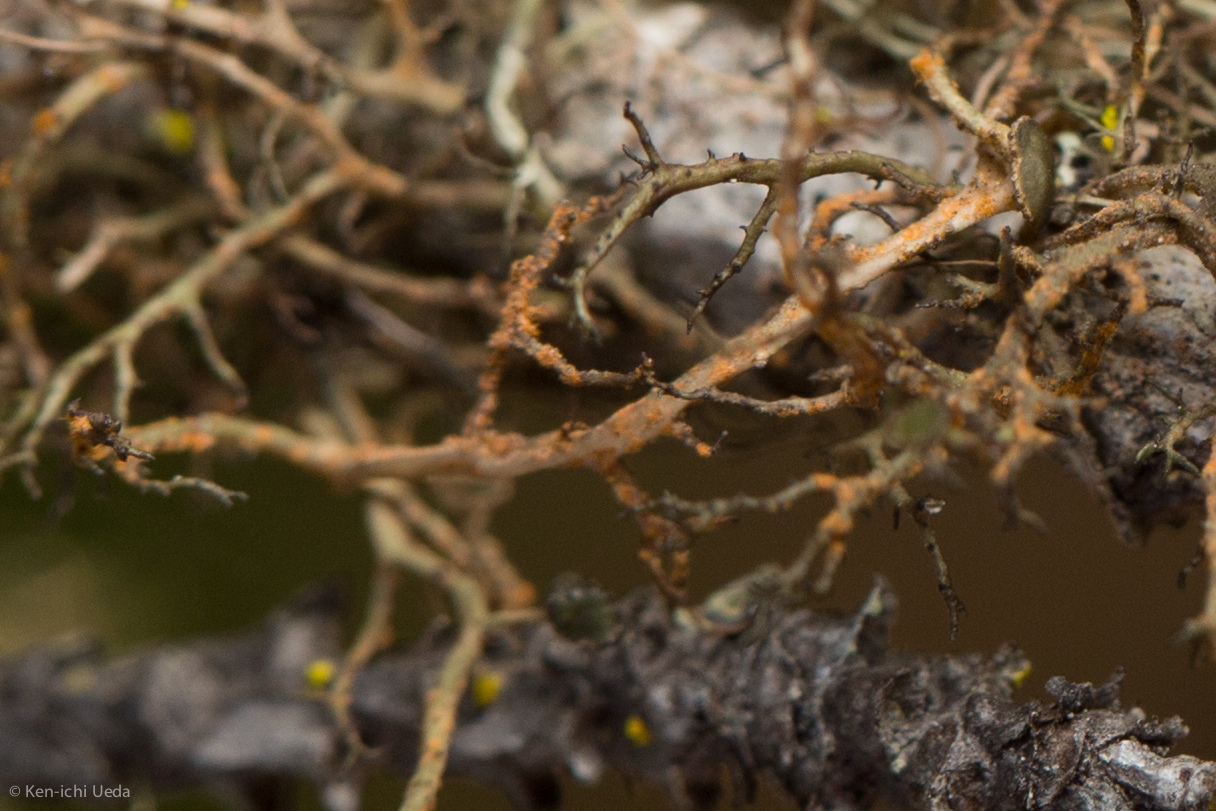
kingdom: Fungi
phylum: Ascomycota
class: Lecanoromycetes
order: Lecanorales
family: Parmeliaceae
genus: Nephromopsis
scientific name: Nephromopsis tuckermanii
